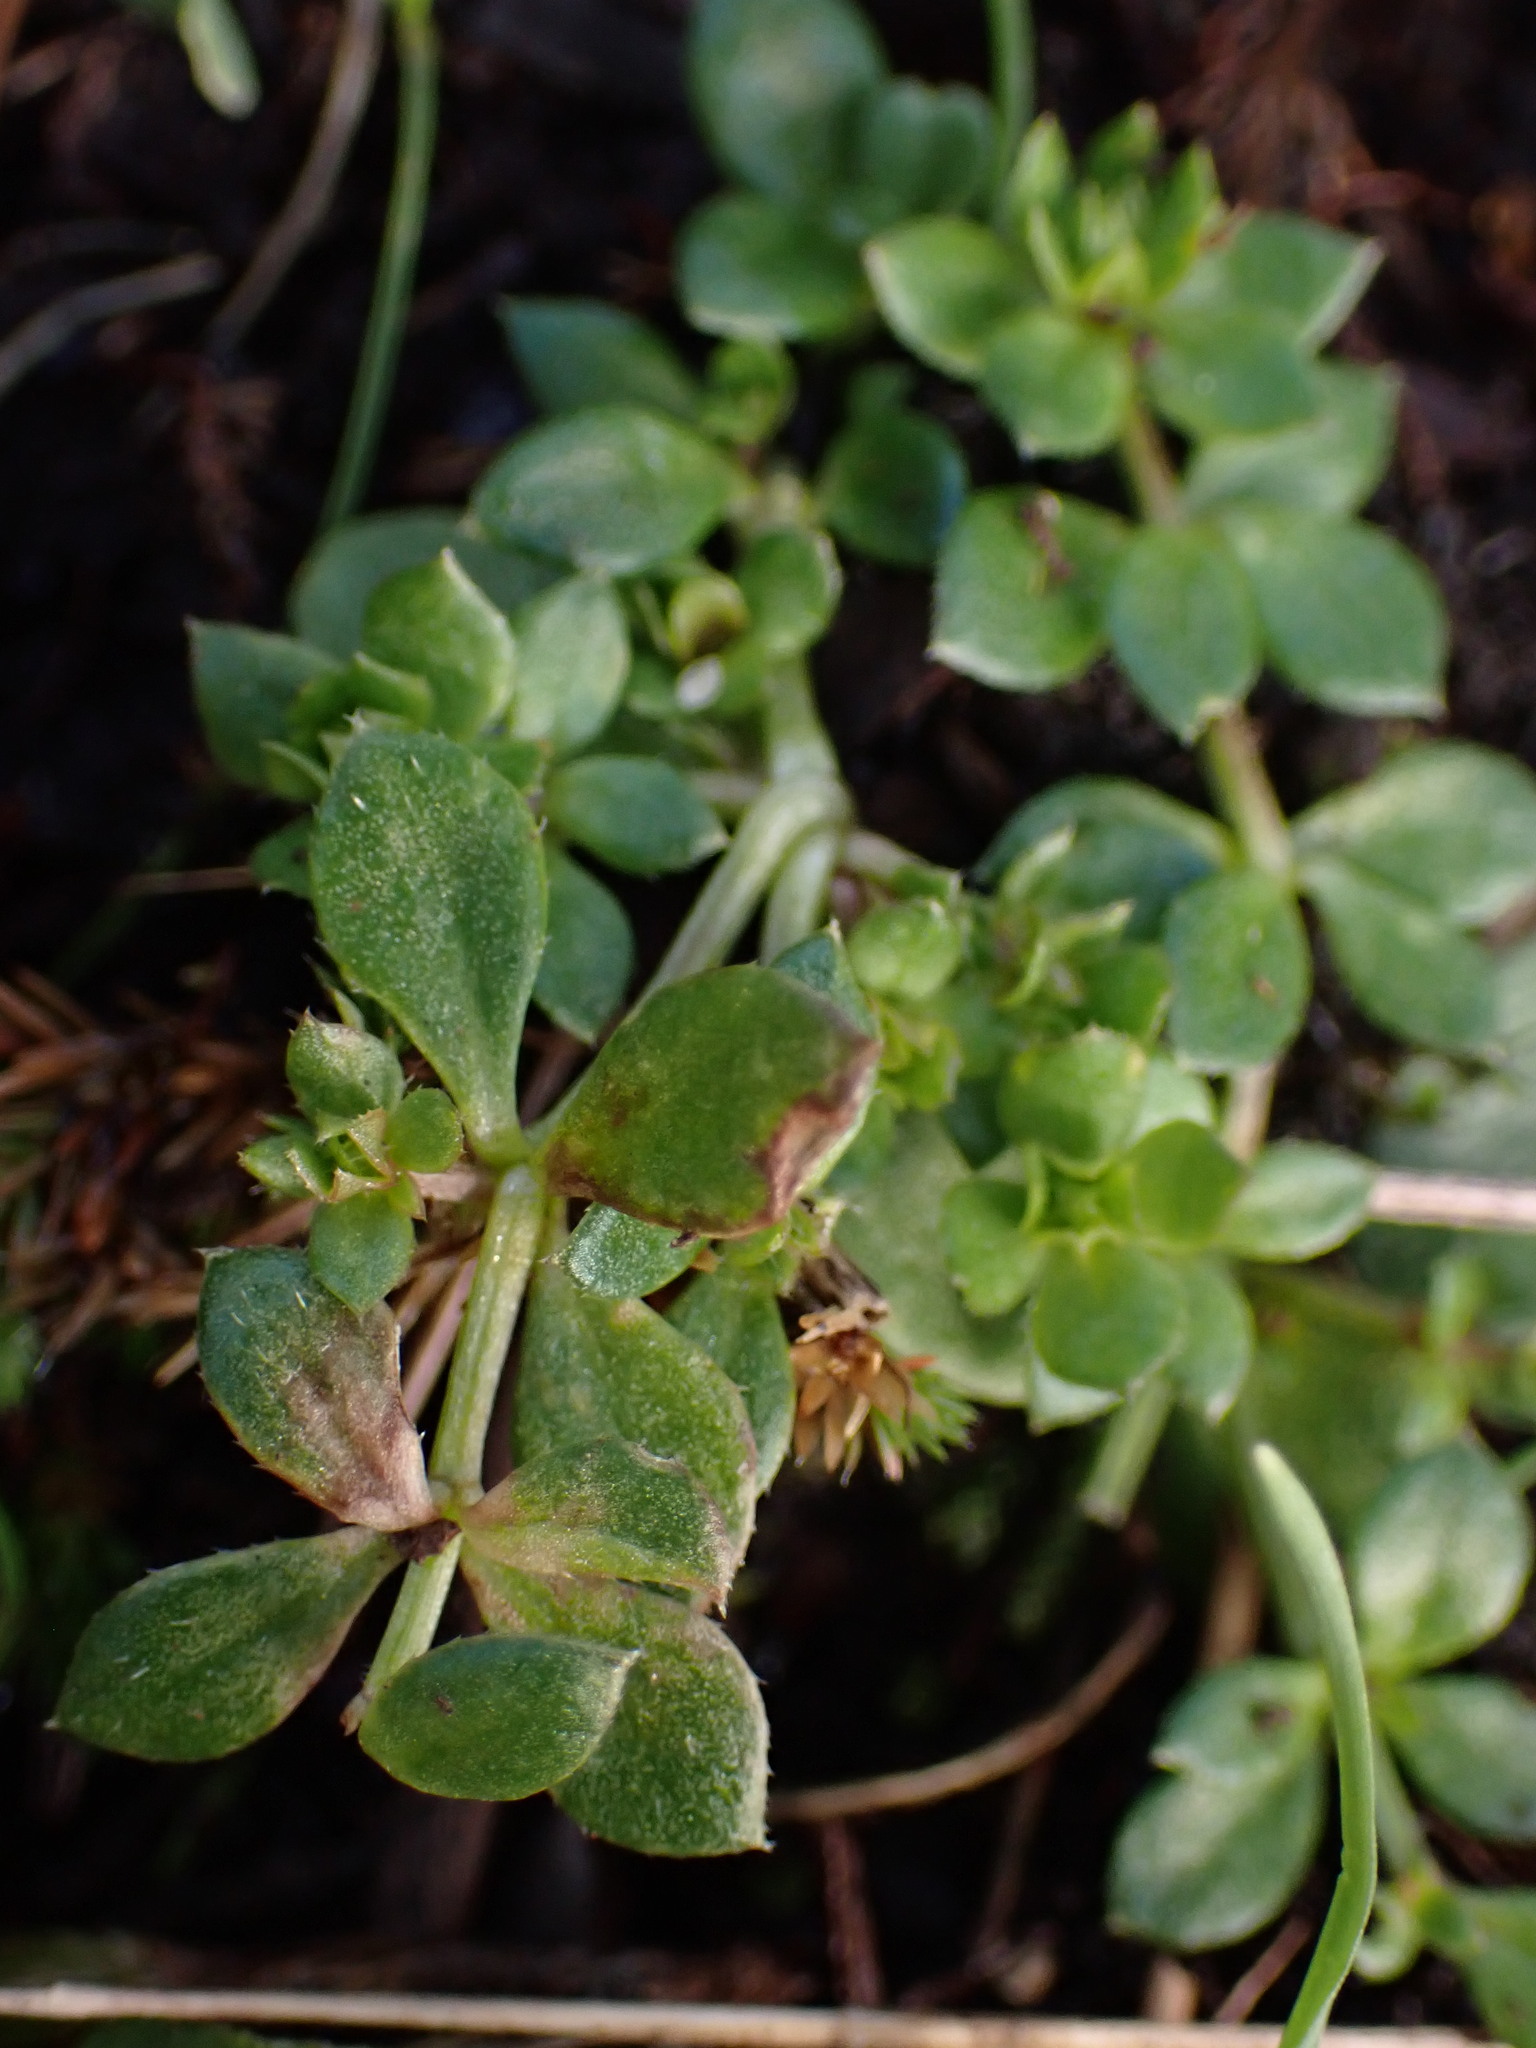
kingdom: Plantae
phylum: Tracheophyta
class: Magnoliopsida
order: Gentianales
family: Rubiaceae
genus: Sherardia
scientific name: Sherardia arvensis
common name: Field madder
